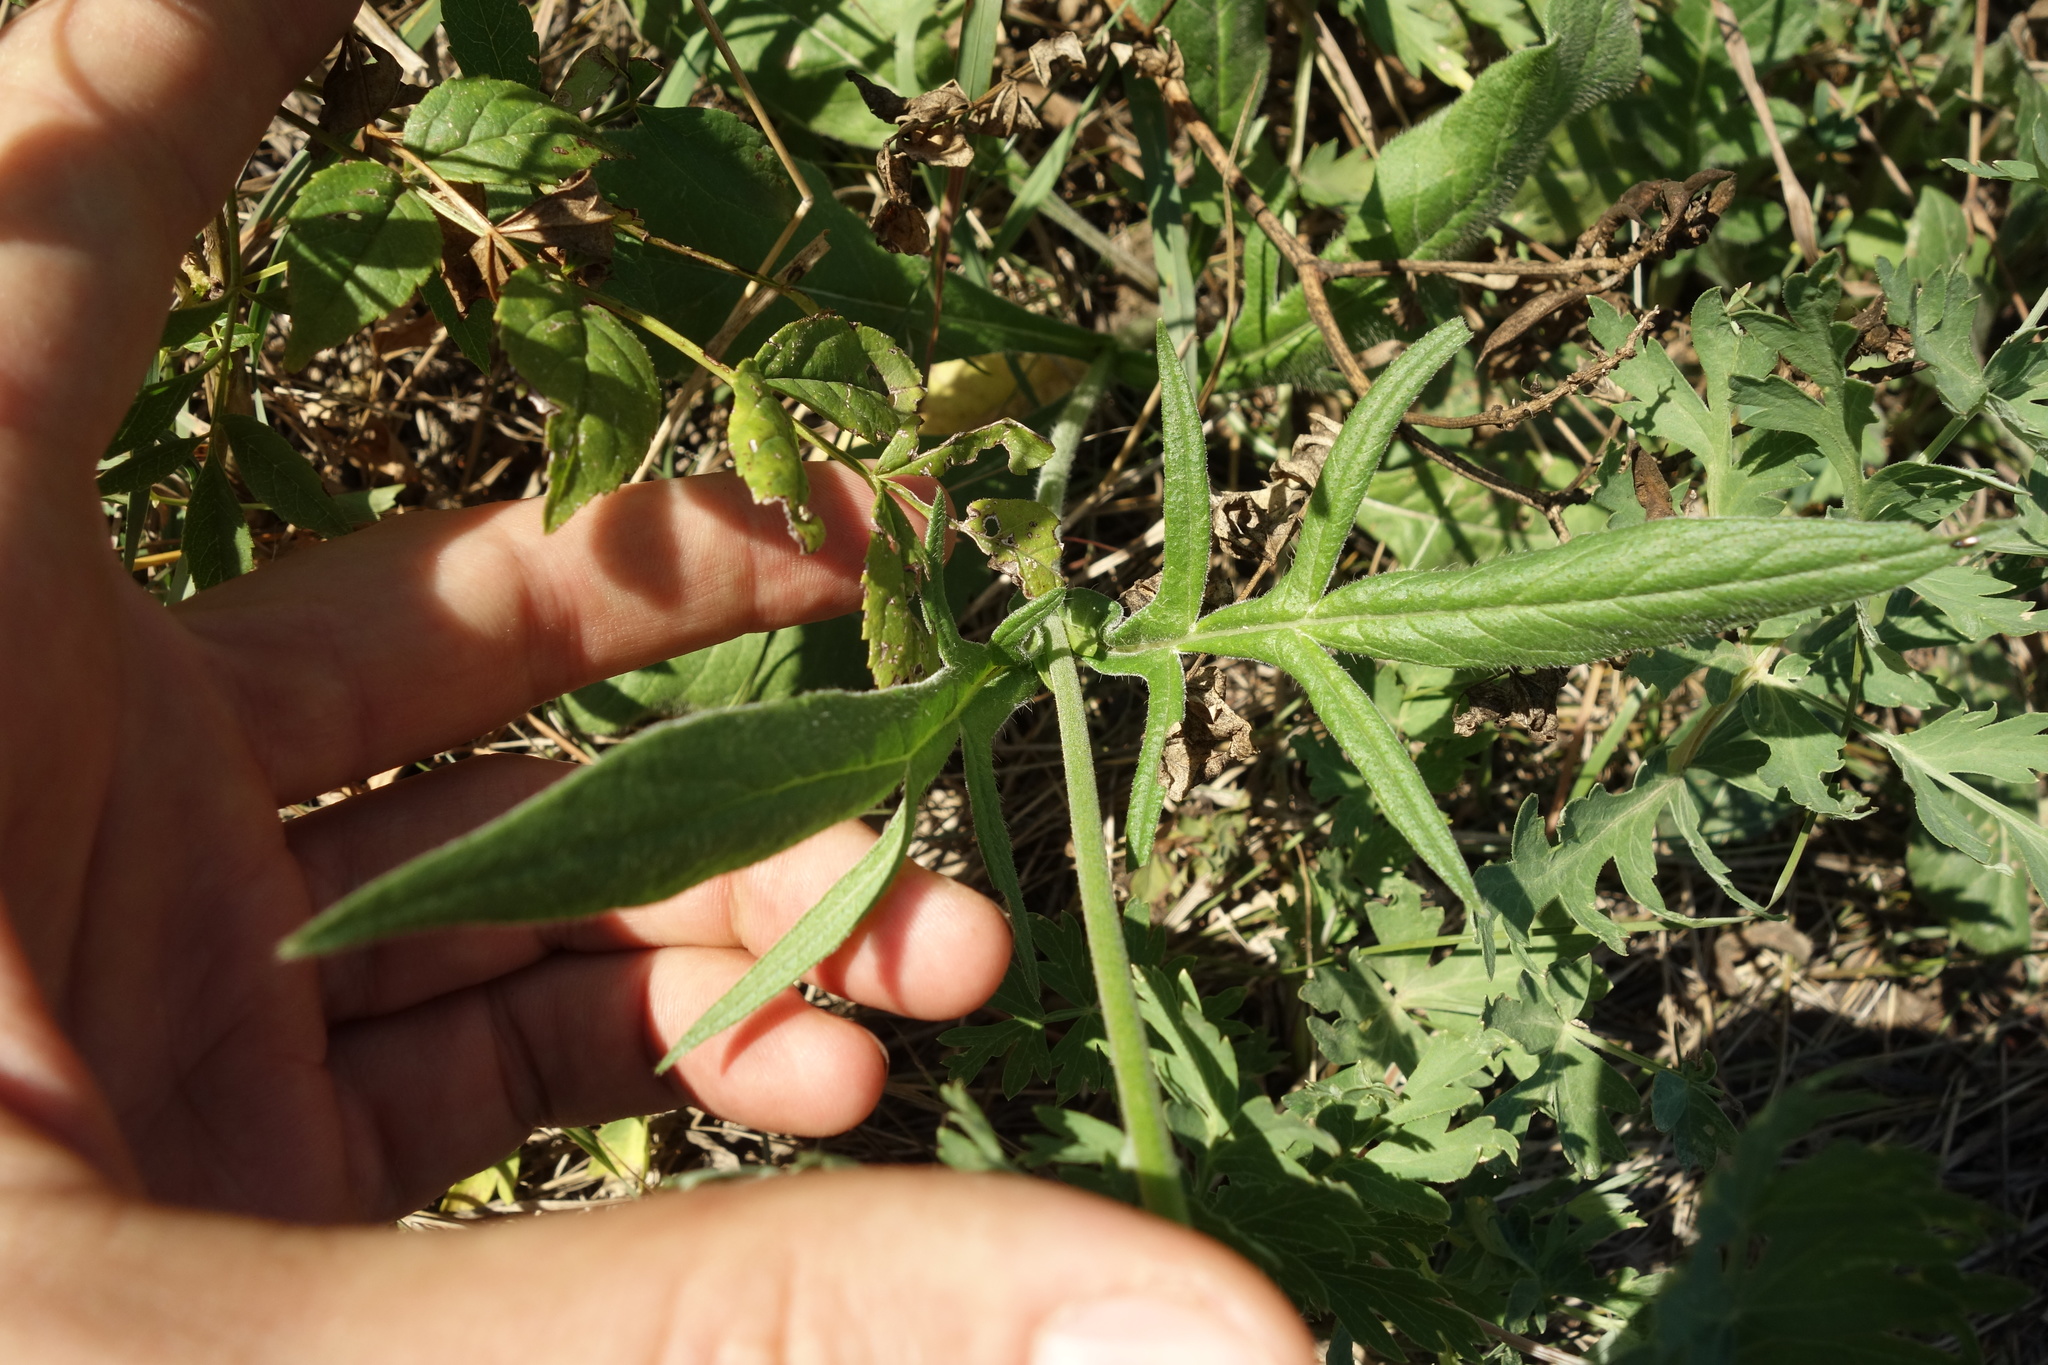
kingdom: Plantae
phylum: Tracheophyta
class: Magnoliopsida
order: Dipsacales
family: Caprifoliaceae
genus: Knautia
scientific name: Knautia arvensis
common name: Field scabiosa
